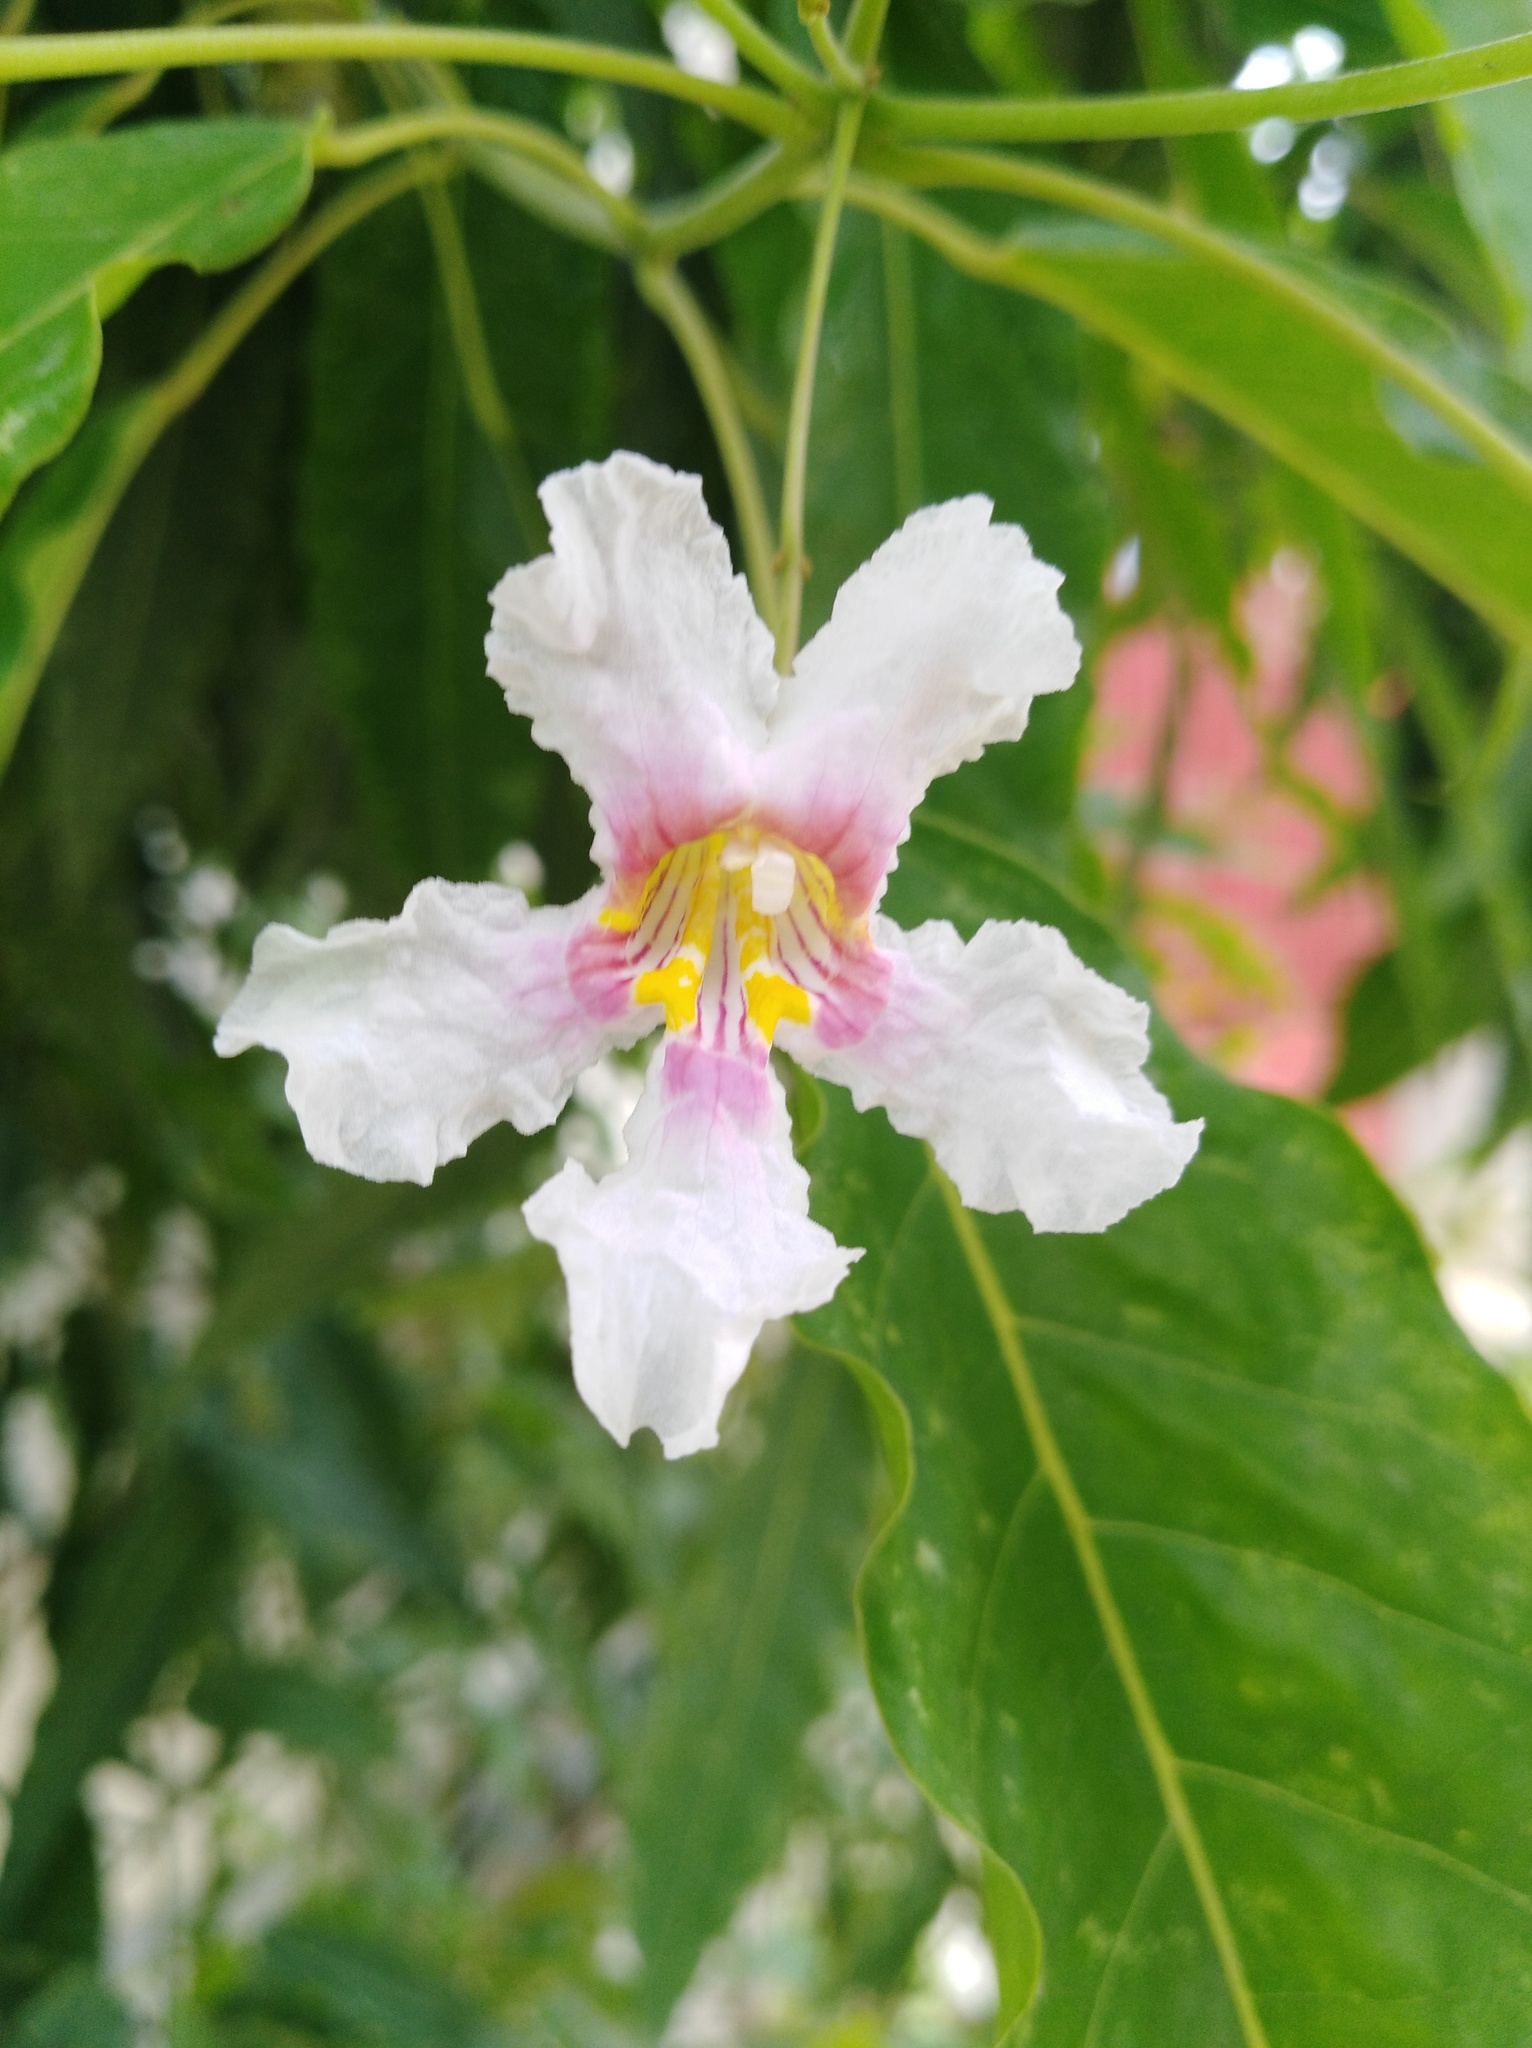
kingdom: Plantae
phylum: Tracheophyta
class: Magnoliopsida
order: Lamiales
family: Bignoniaceae
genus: Catalpa
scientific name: Catalpa longissima
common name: Haitian catalpa
